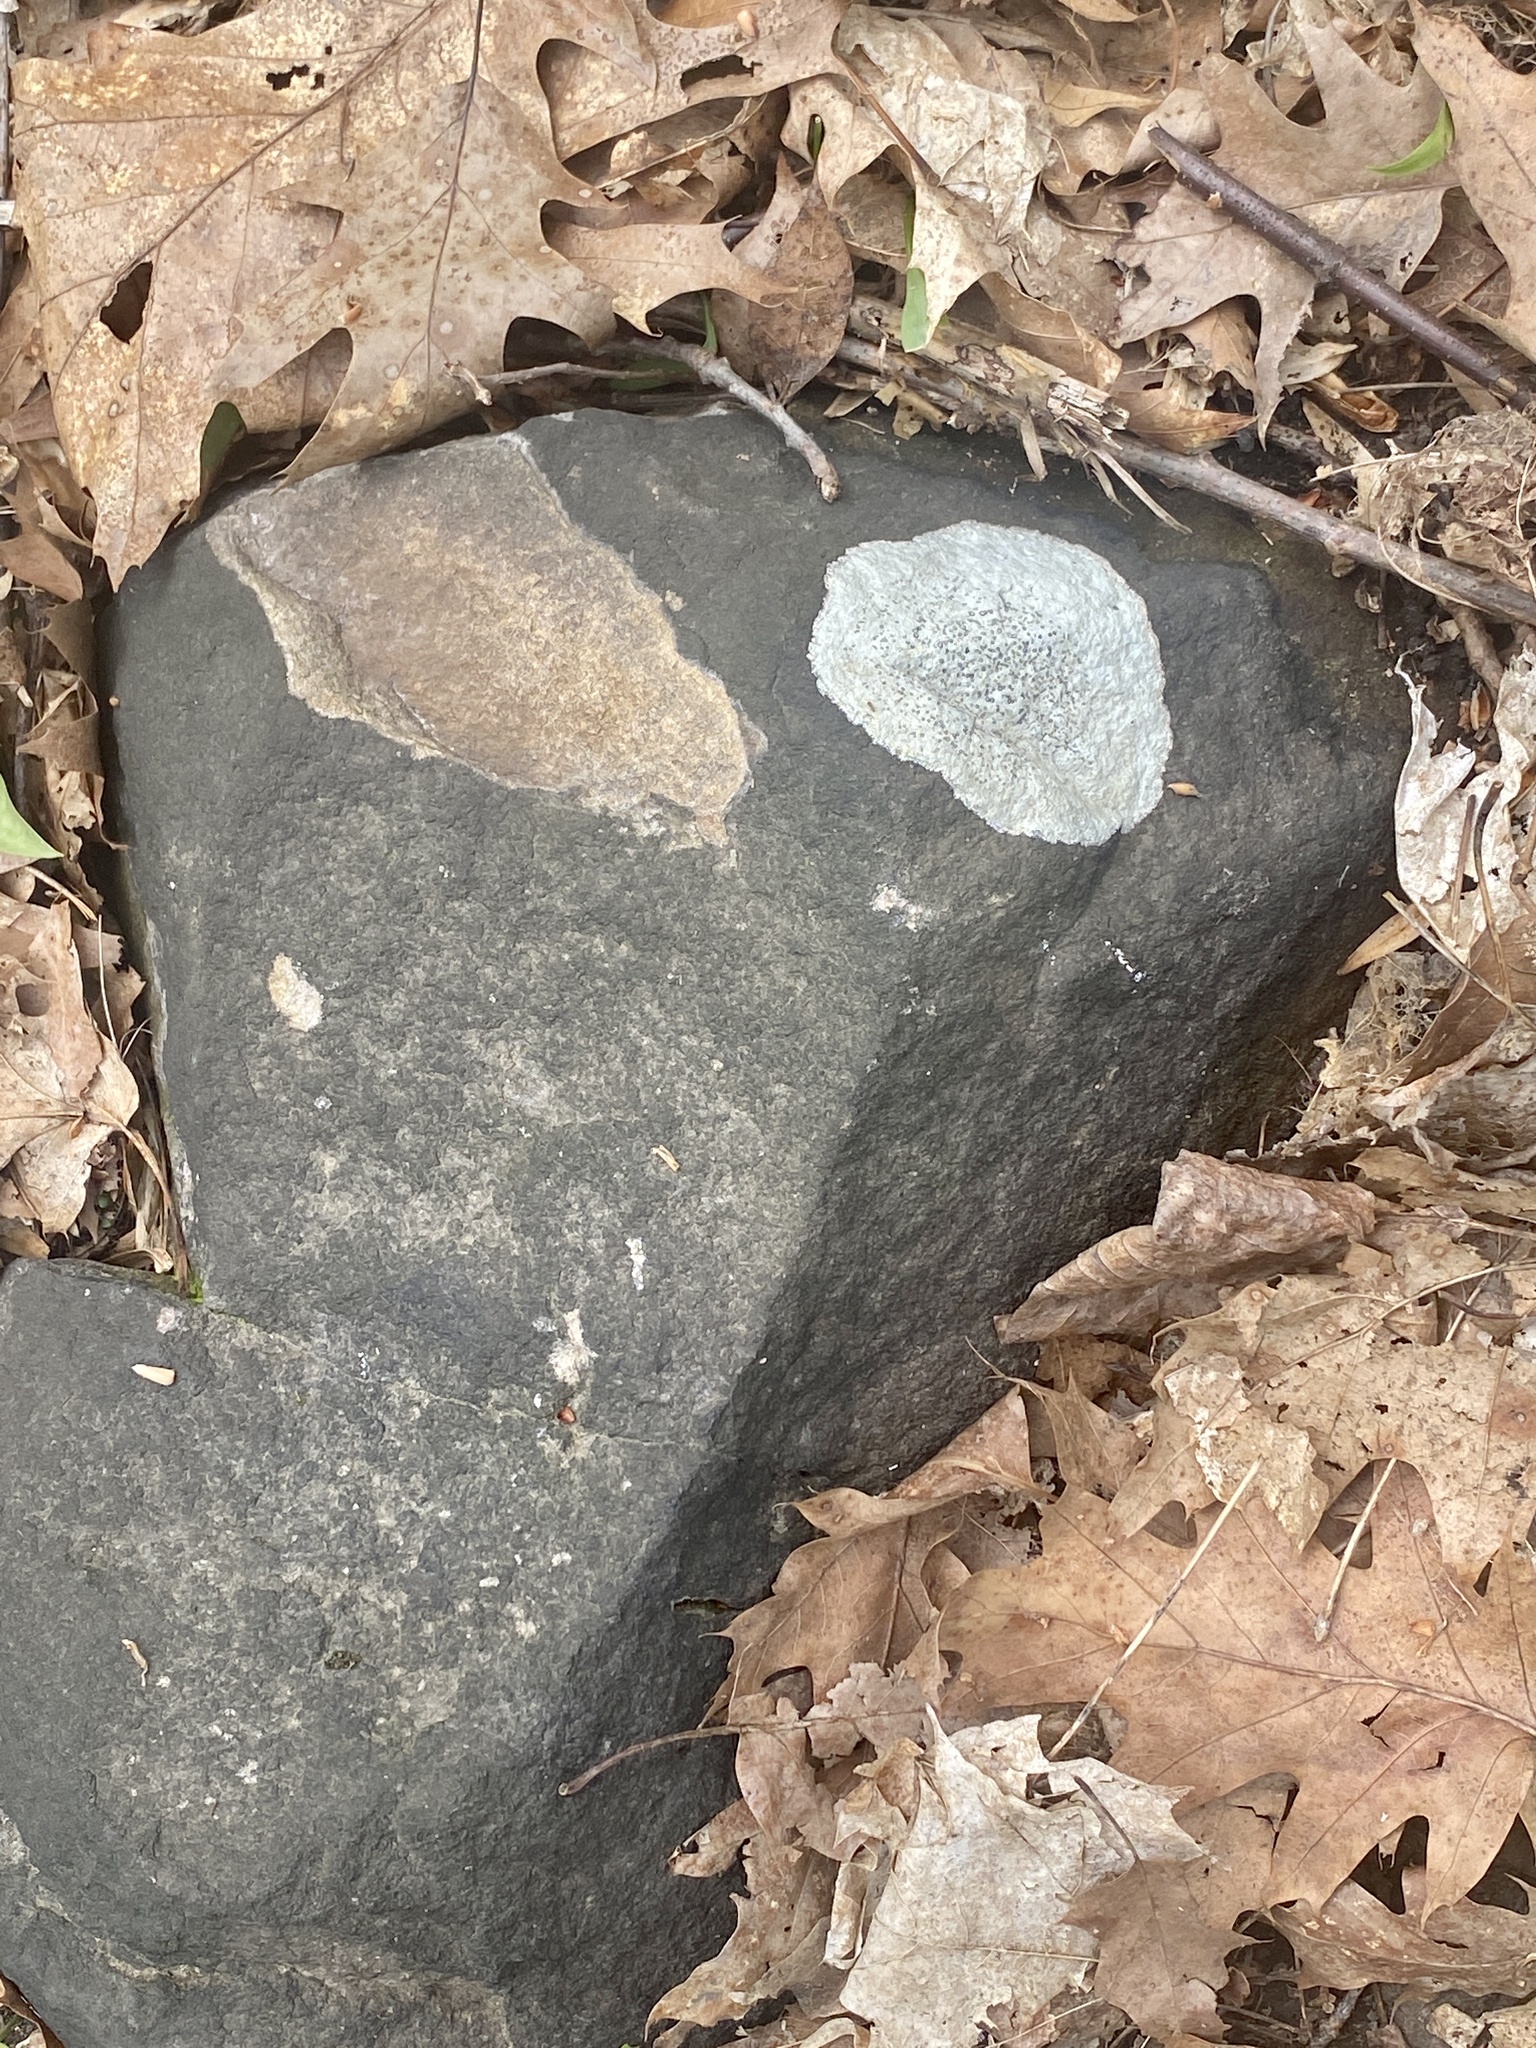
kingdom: Fungi
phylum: Ascomycota
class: Lecanoromycetes
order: Lecideales
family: Lecideaceae
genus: Porpidia
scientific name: Porpidia albocaerulescens
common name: Smokey-eyed boulder lichen
